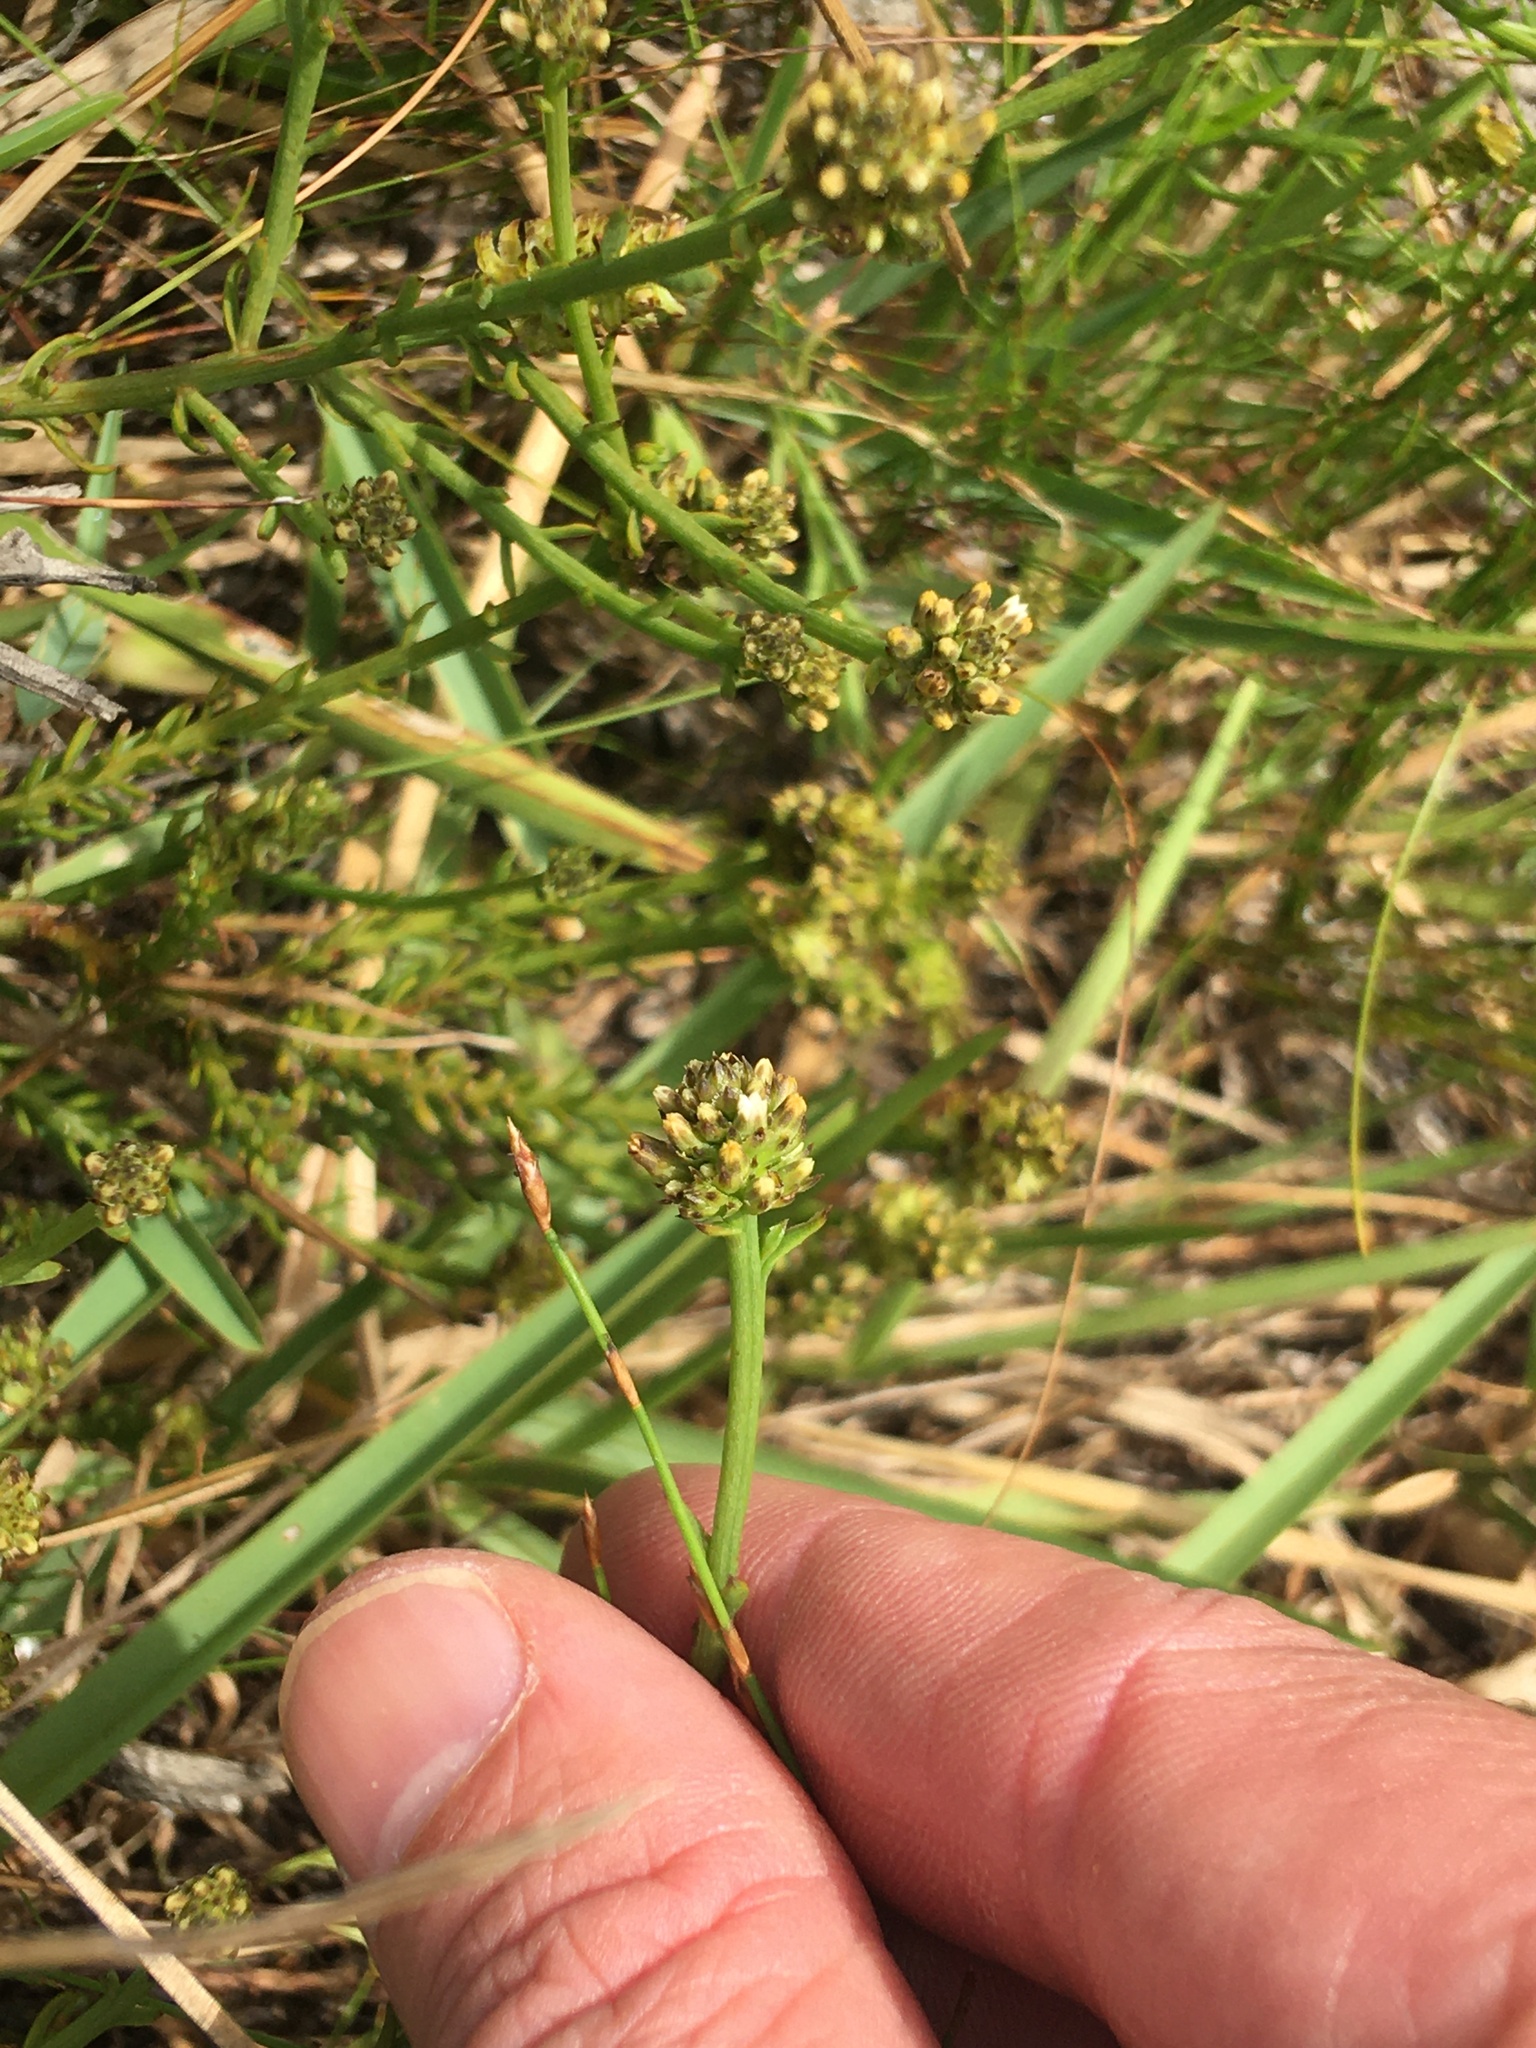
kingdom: Plantae
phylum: Tracheophyta
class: Magnoliopsida
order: Santalales
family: Thesiaceae
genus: Thesium
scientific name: Thesium aggregatum
